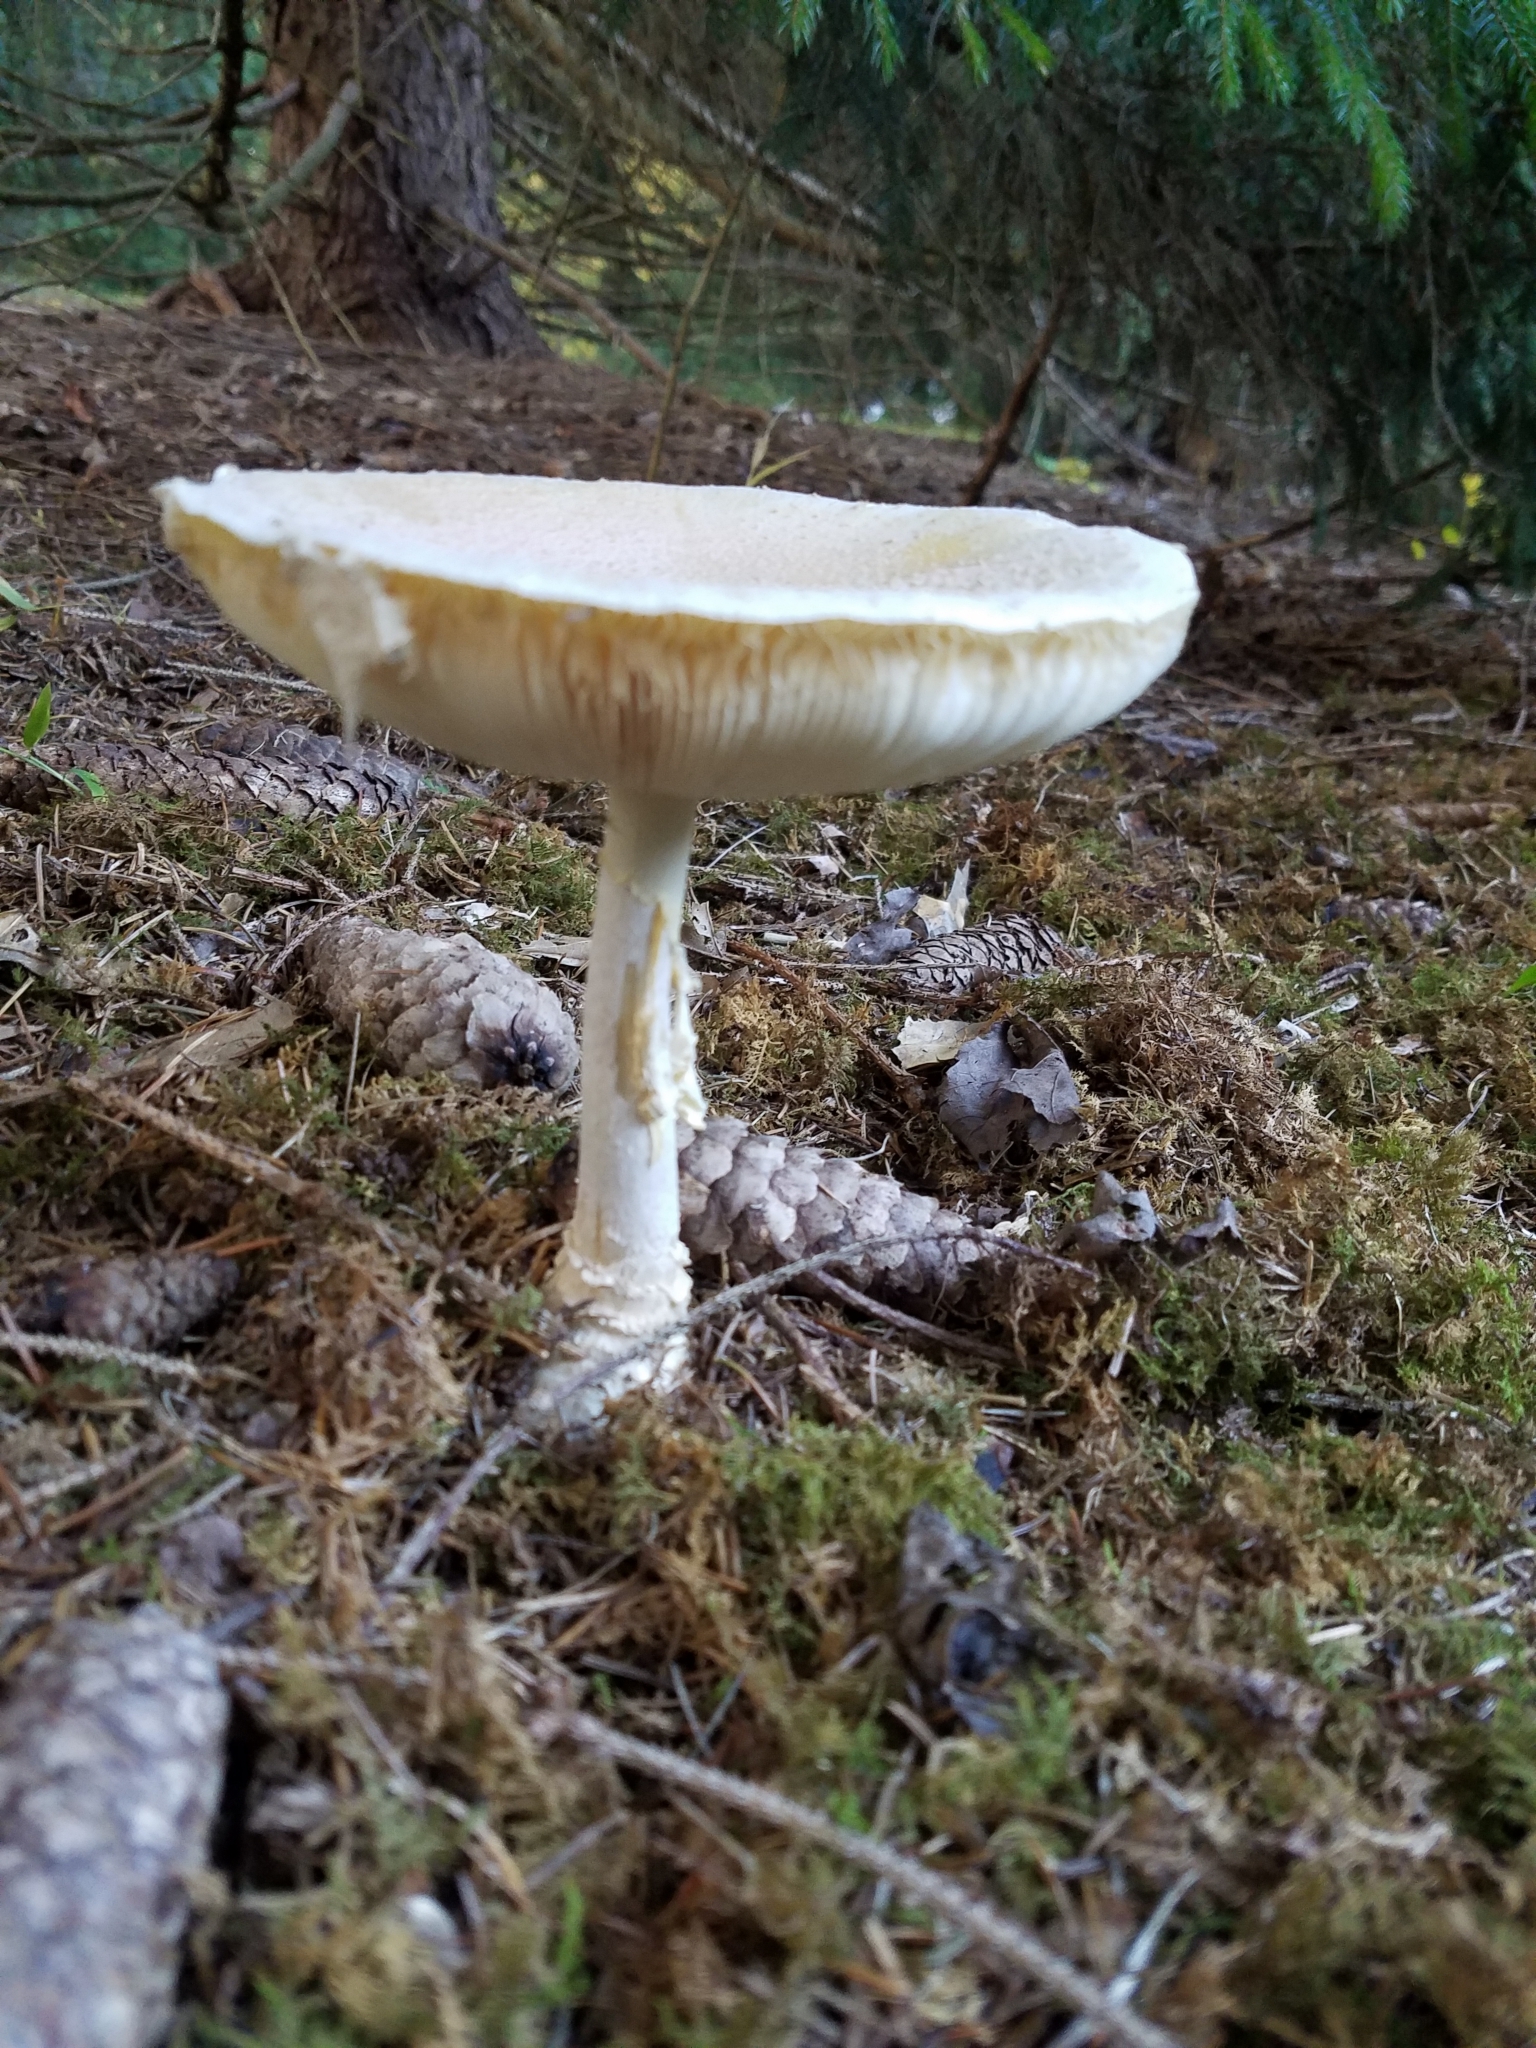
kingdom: Fungi
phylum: Basidiomycota
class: Agaricomycetes
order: Agaricales
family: Amanitaceae
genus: Amanita
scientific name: Amanita muscaria
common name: Fly agaric
